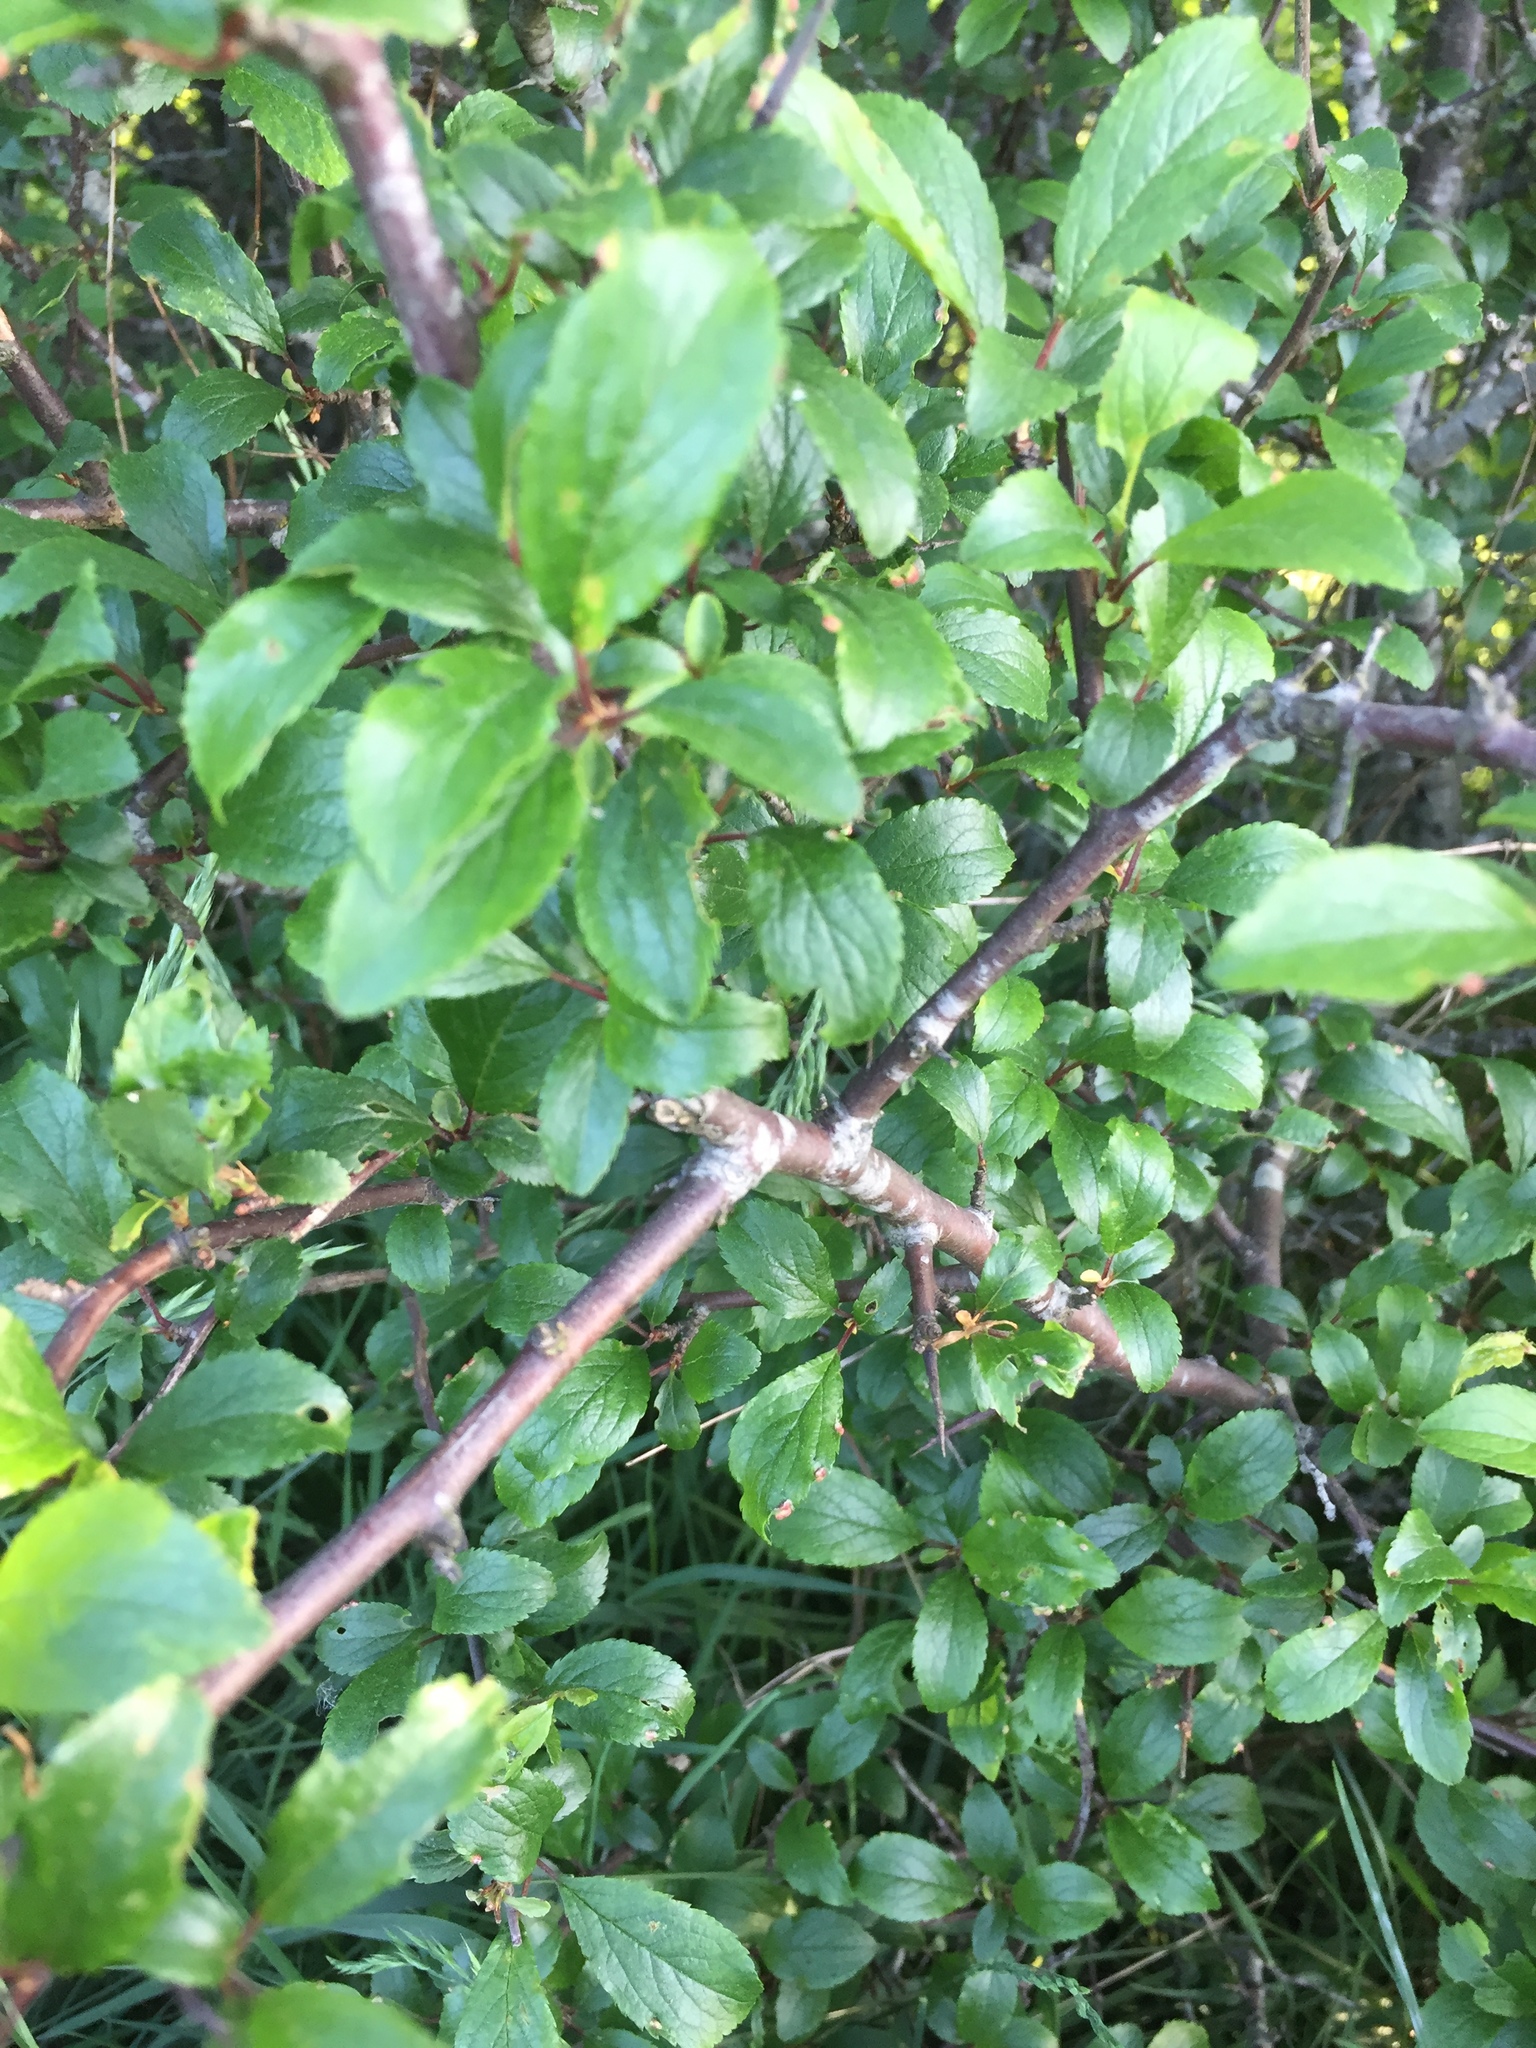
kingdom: Plantae
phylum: Tracheophyta
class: Magnoliopsida
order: Rosales
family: Rosaceae
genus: Prunus
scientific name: Prunus spinosa
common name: Blackthorn
